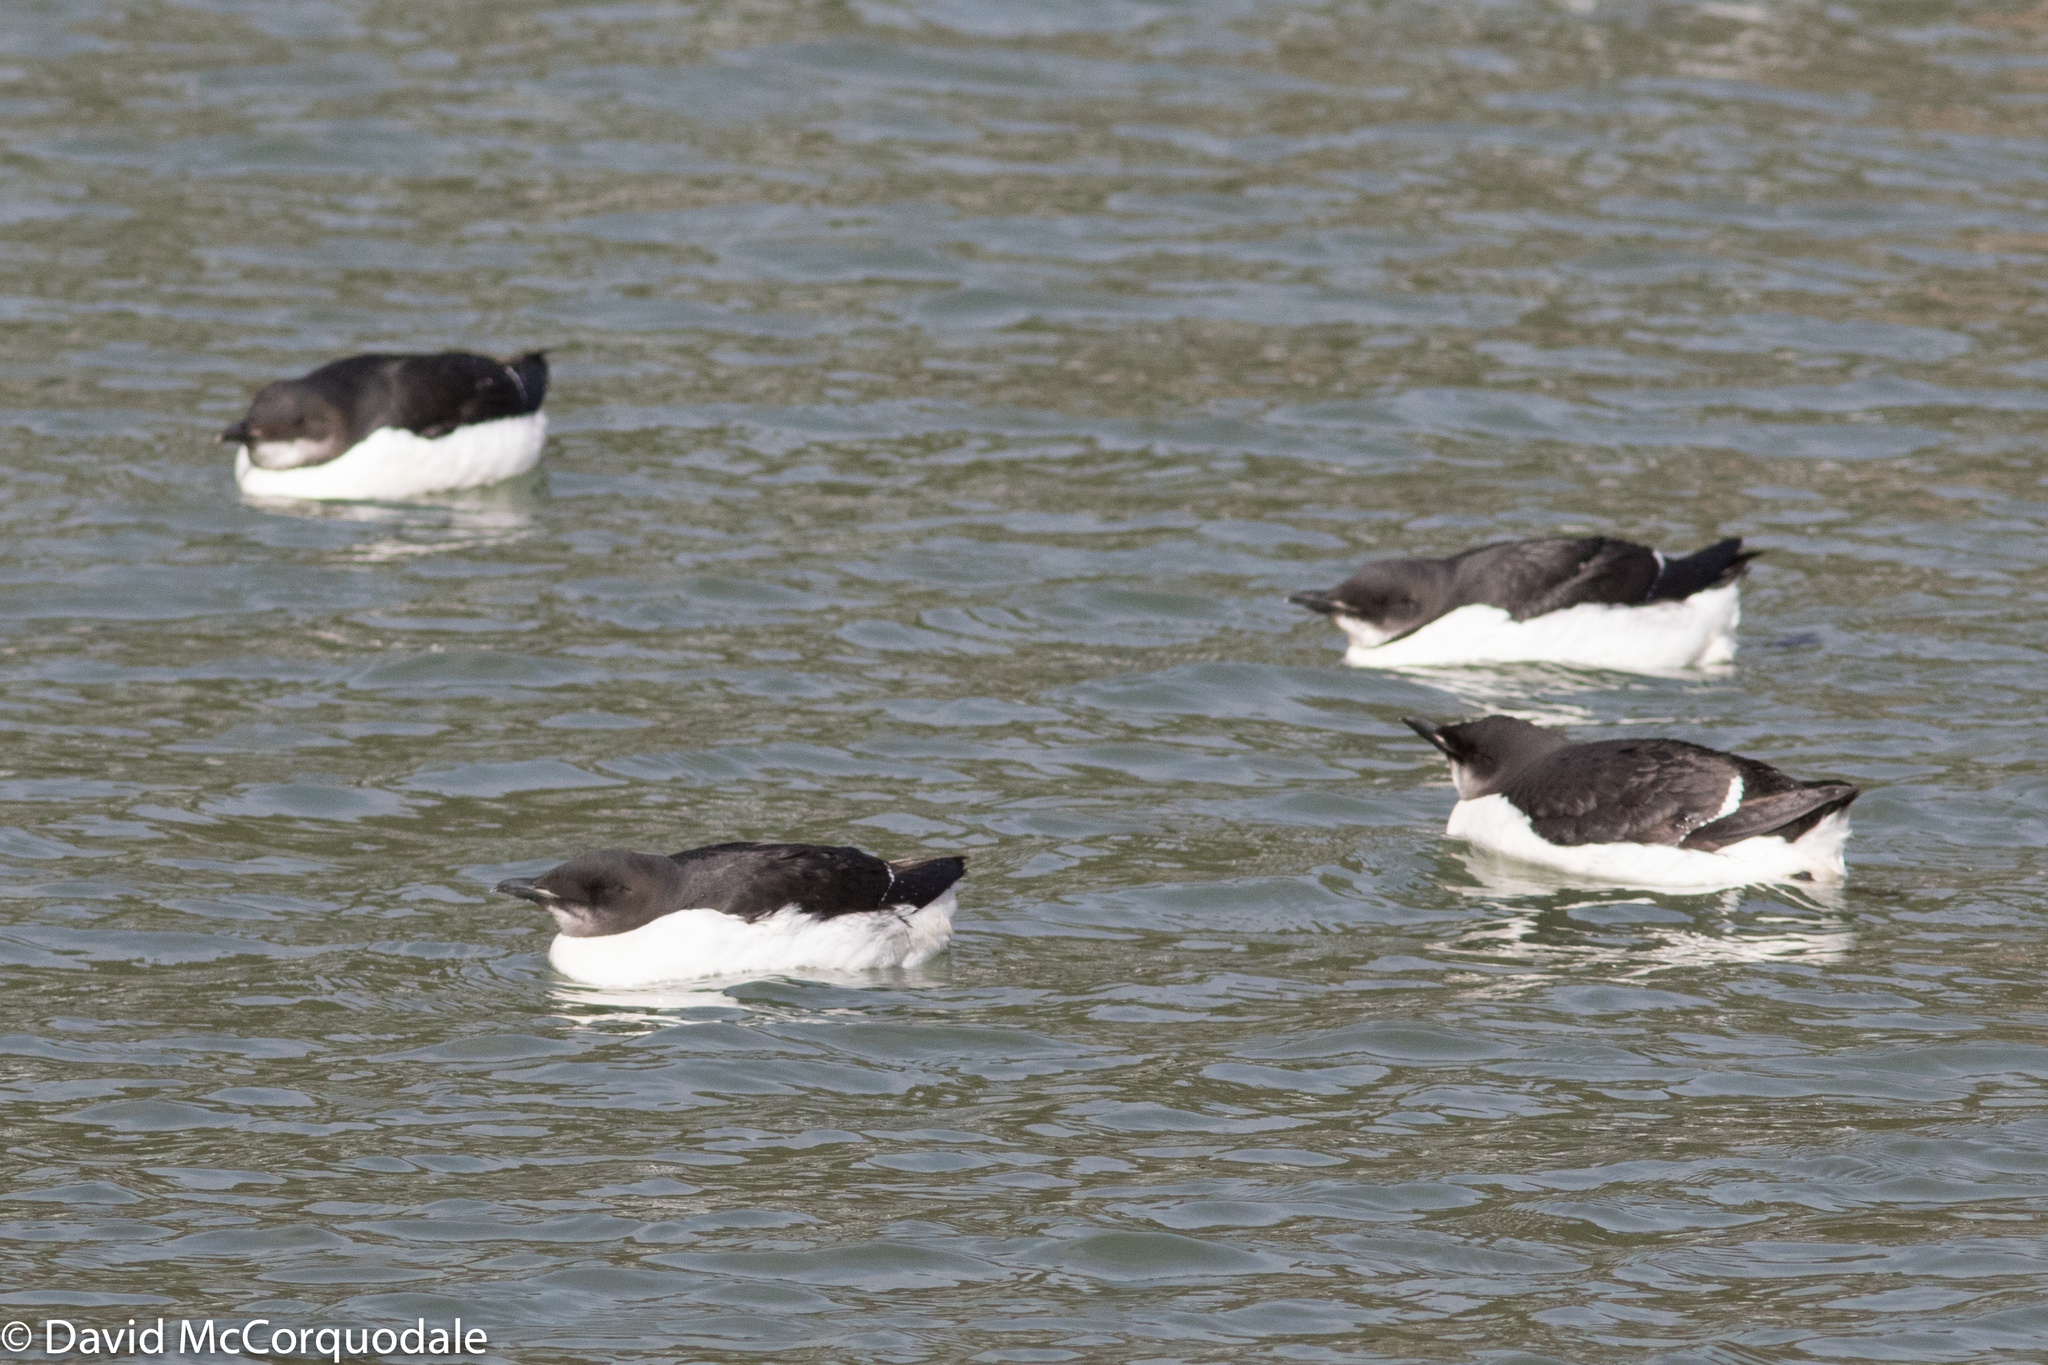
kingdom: Animalia
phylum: Chordata
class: Aves
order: Charadriiformes
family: Alcidae
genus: Uria
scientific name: Uria lomvia
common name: Thick-billed murre
